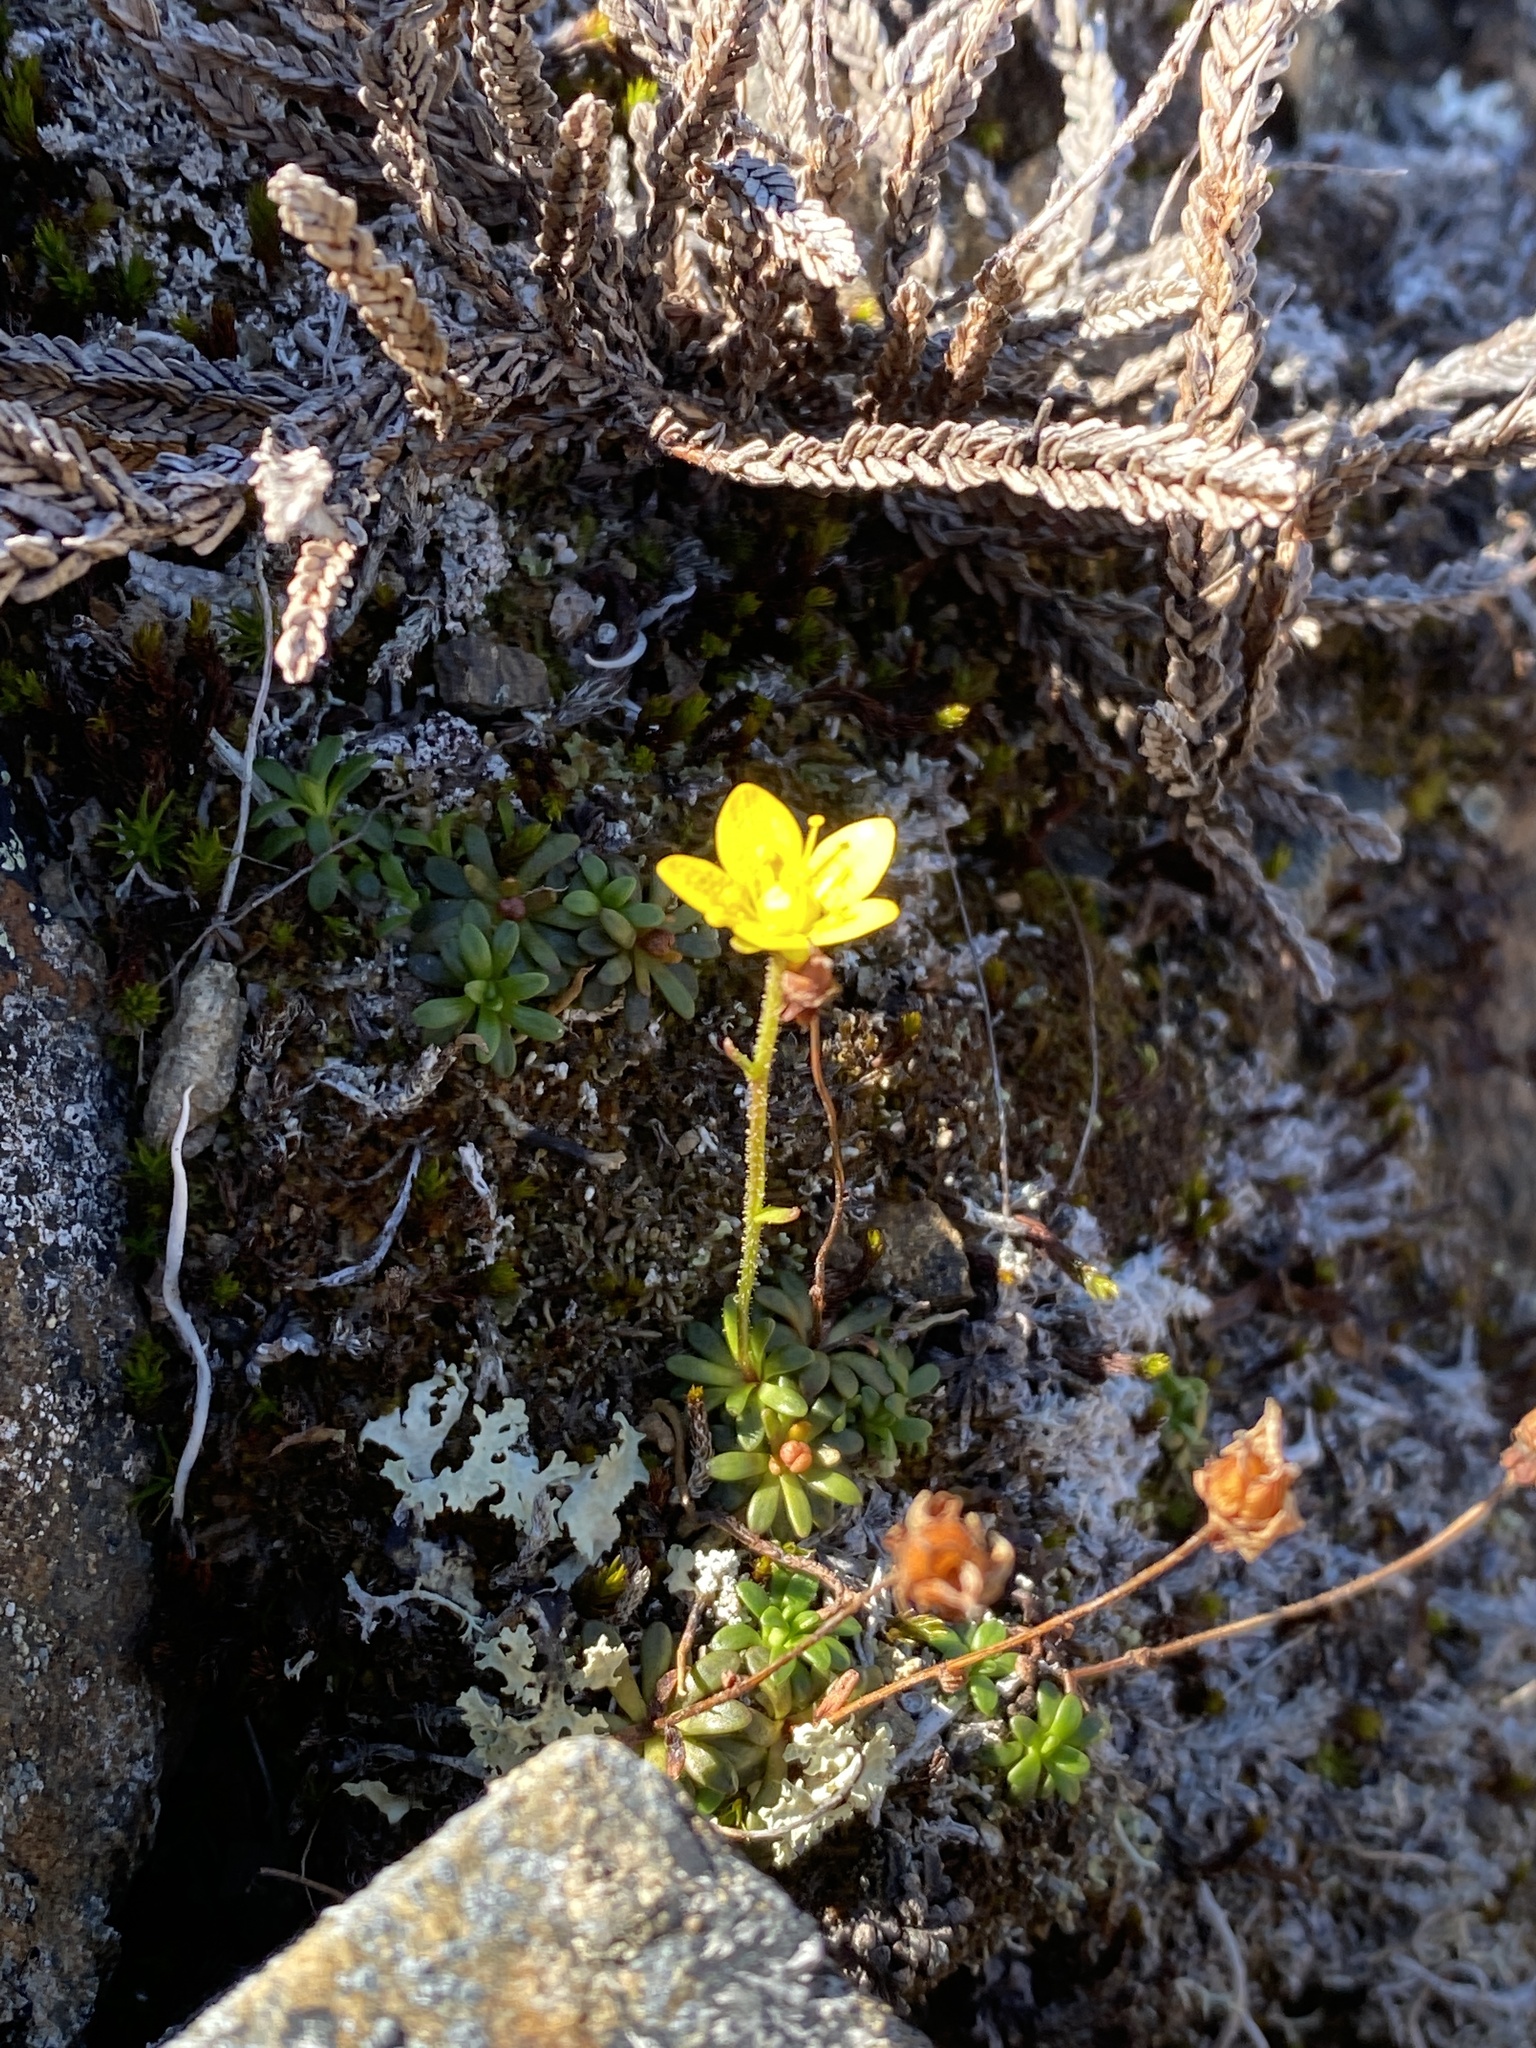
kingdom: Plantae
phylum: Tracheophyta
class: Magnoliopsida
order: Saxifragales
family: Saxifragaceae
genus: Saxifraga
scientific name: Saxifraga serpyllifolia
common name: Thyme-leaved saxifrage
